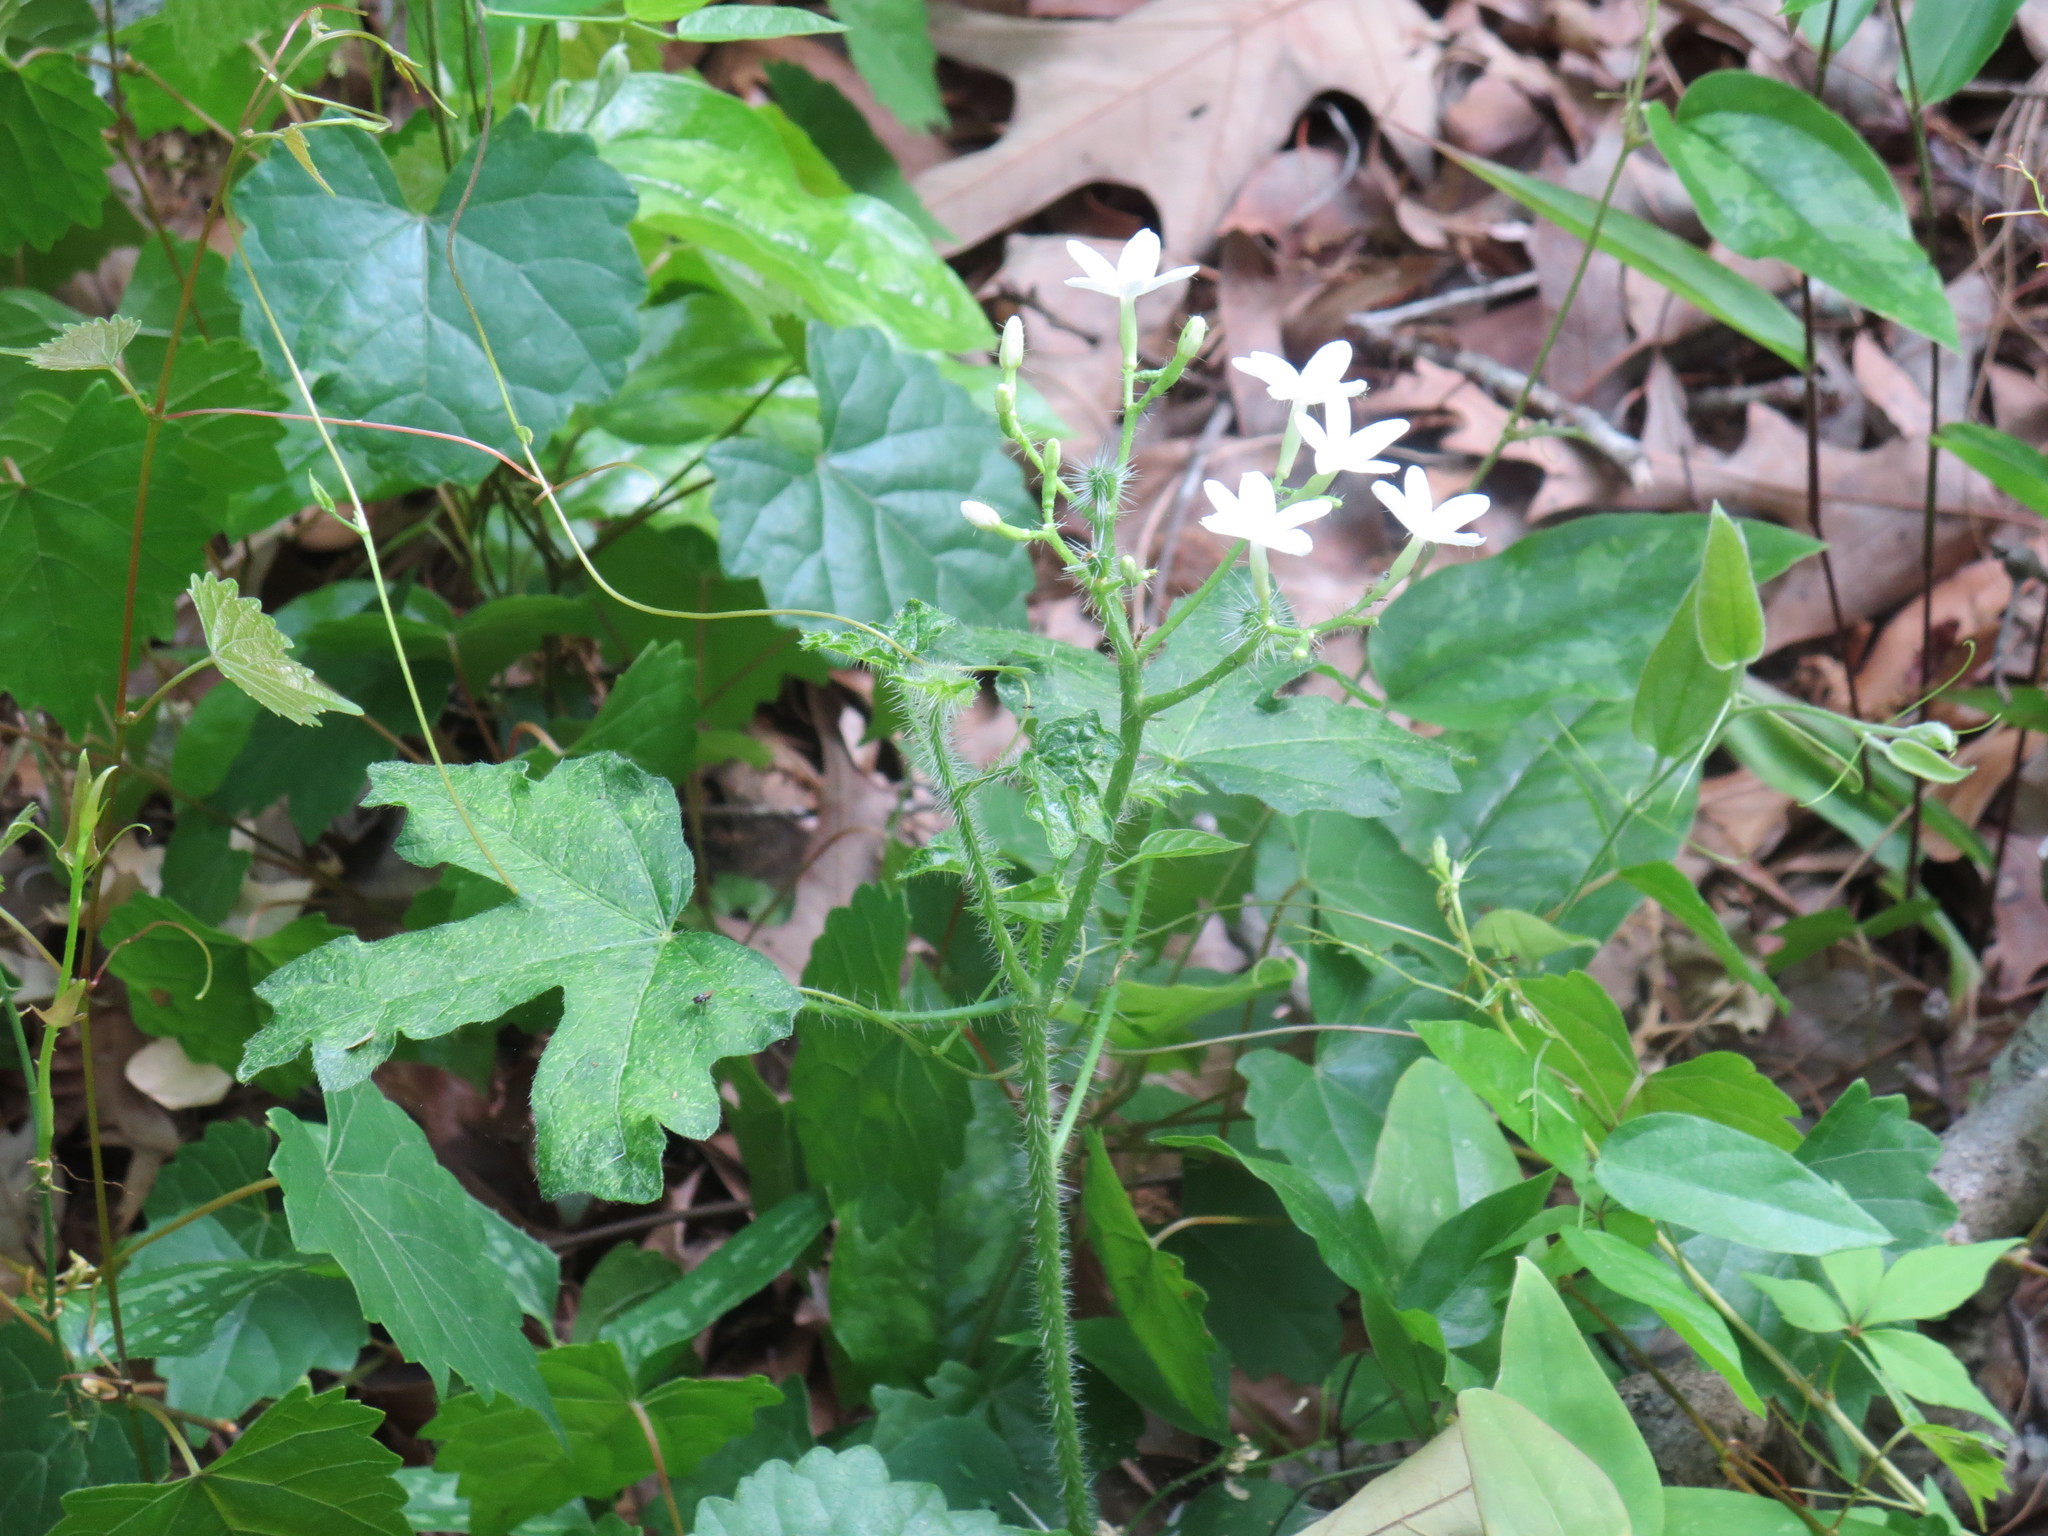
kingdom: Plantae
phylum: Tracheophyta
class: Magnoliopsida
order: Malpighiales
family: Euphorbiaceae
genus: Cnidoscolus
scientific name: Cnidoscolus stimulosus
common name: Bull-nettle
